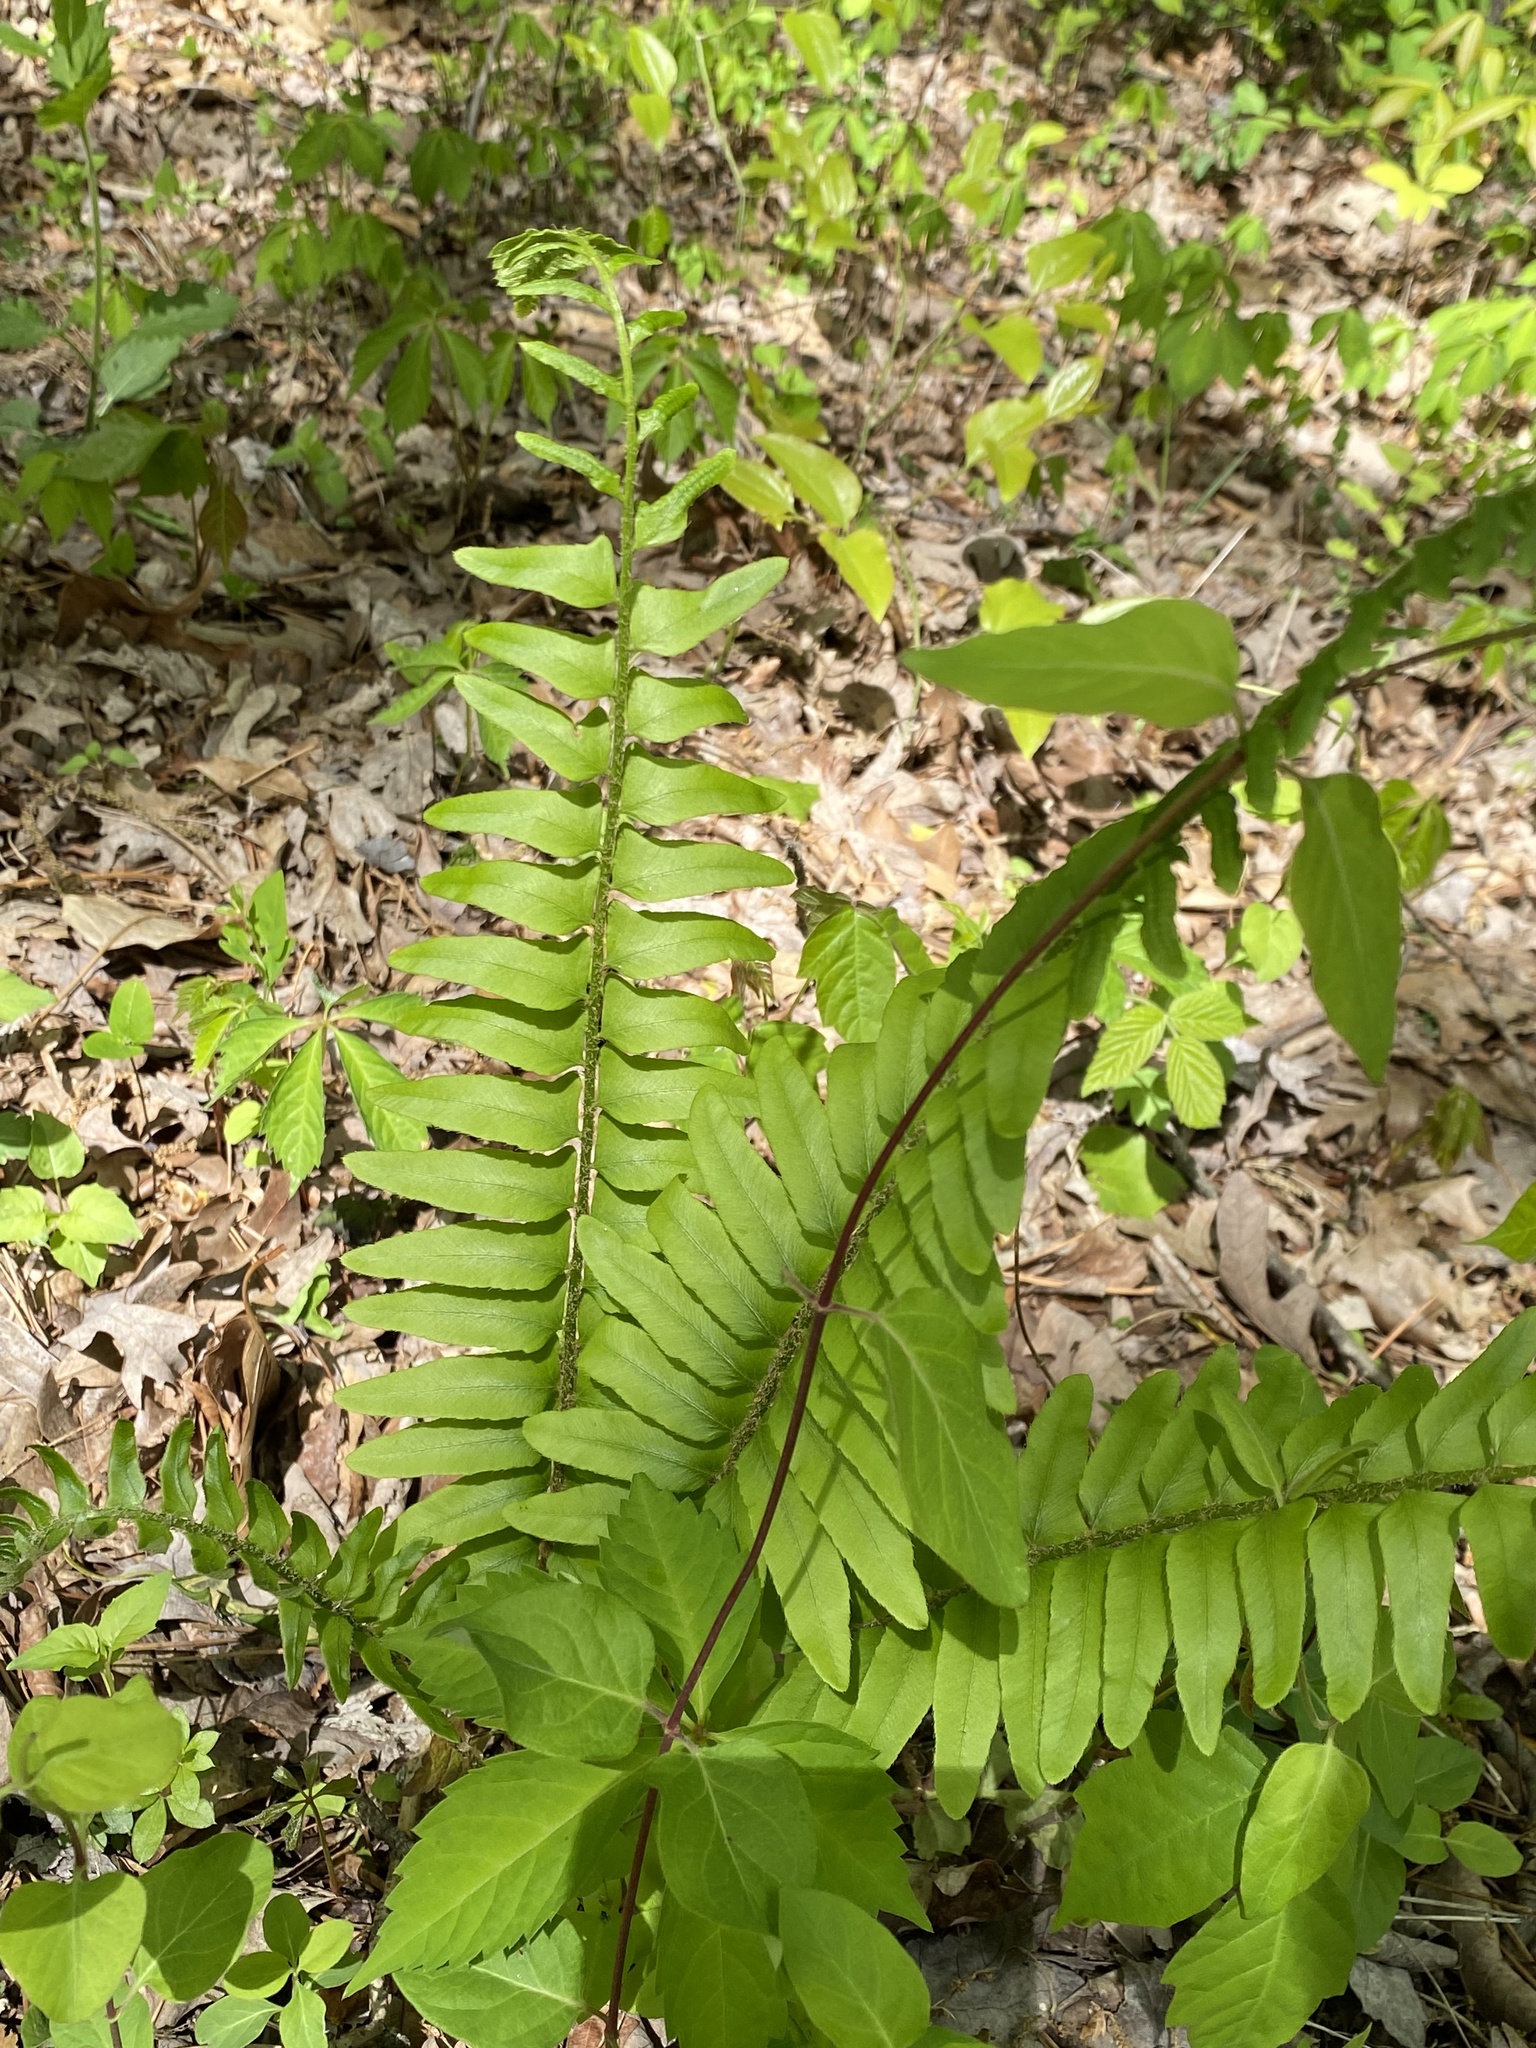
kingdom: Plantae
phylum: Tracheophyta
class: Polypodiopsida
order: Polypodiales
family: Dryopteridaceae
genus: Polystichum
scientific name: Polystichum acrostichoides
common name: Christmas fern
